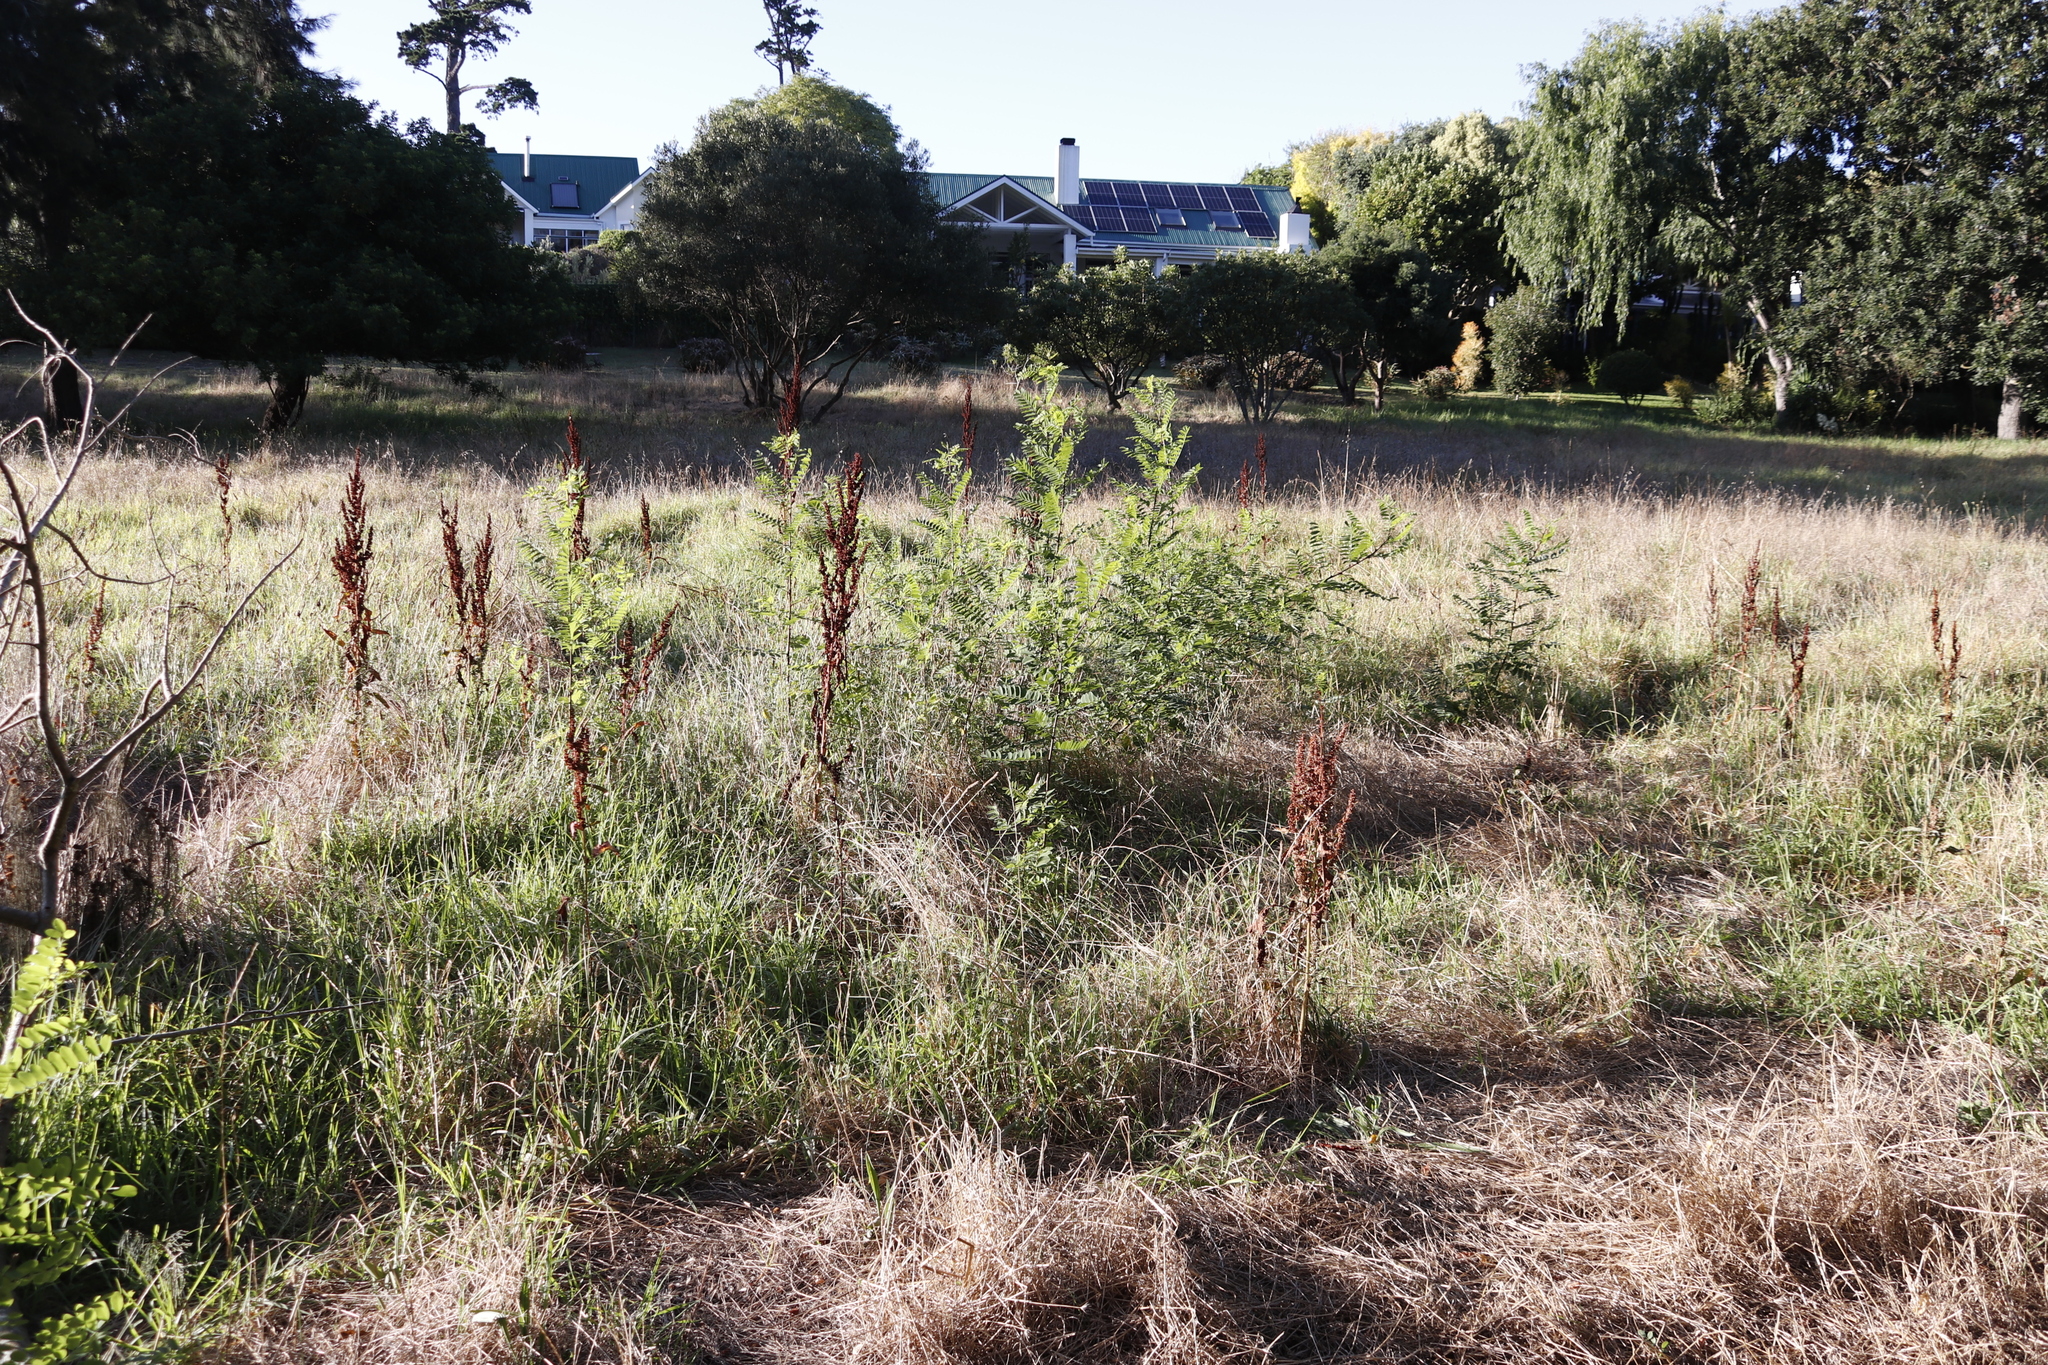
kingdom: Plantae
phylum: Tracheophyta
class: Magnoliopsida
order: Fabales
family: Fabaceae
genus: Robinia
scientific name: Robinia pseudoacacia
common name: Black locust
